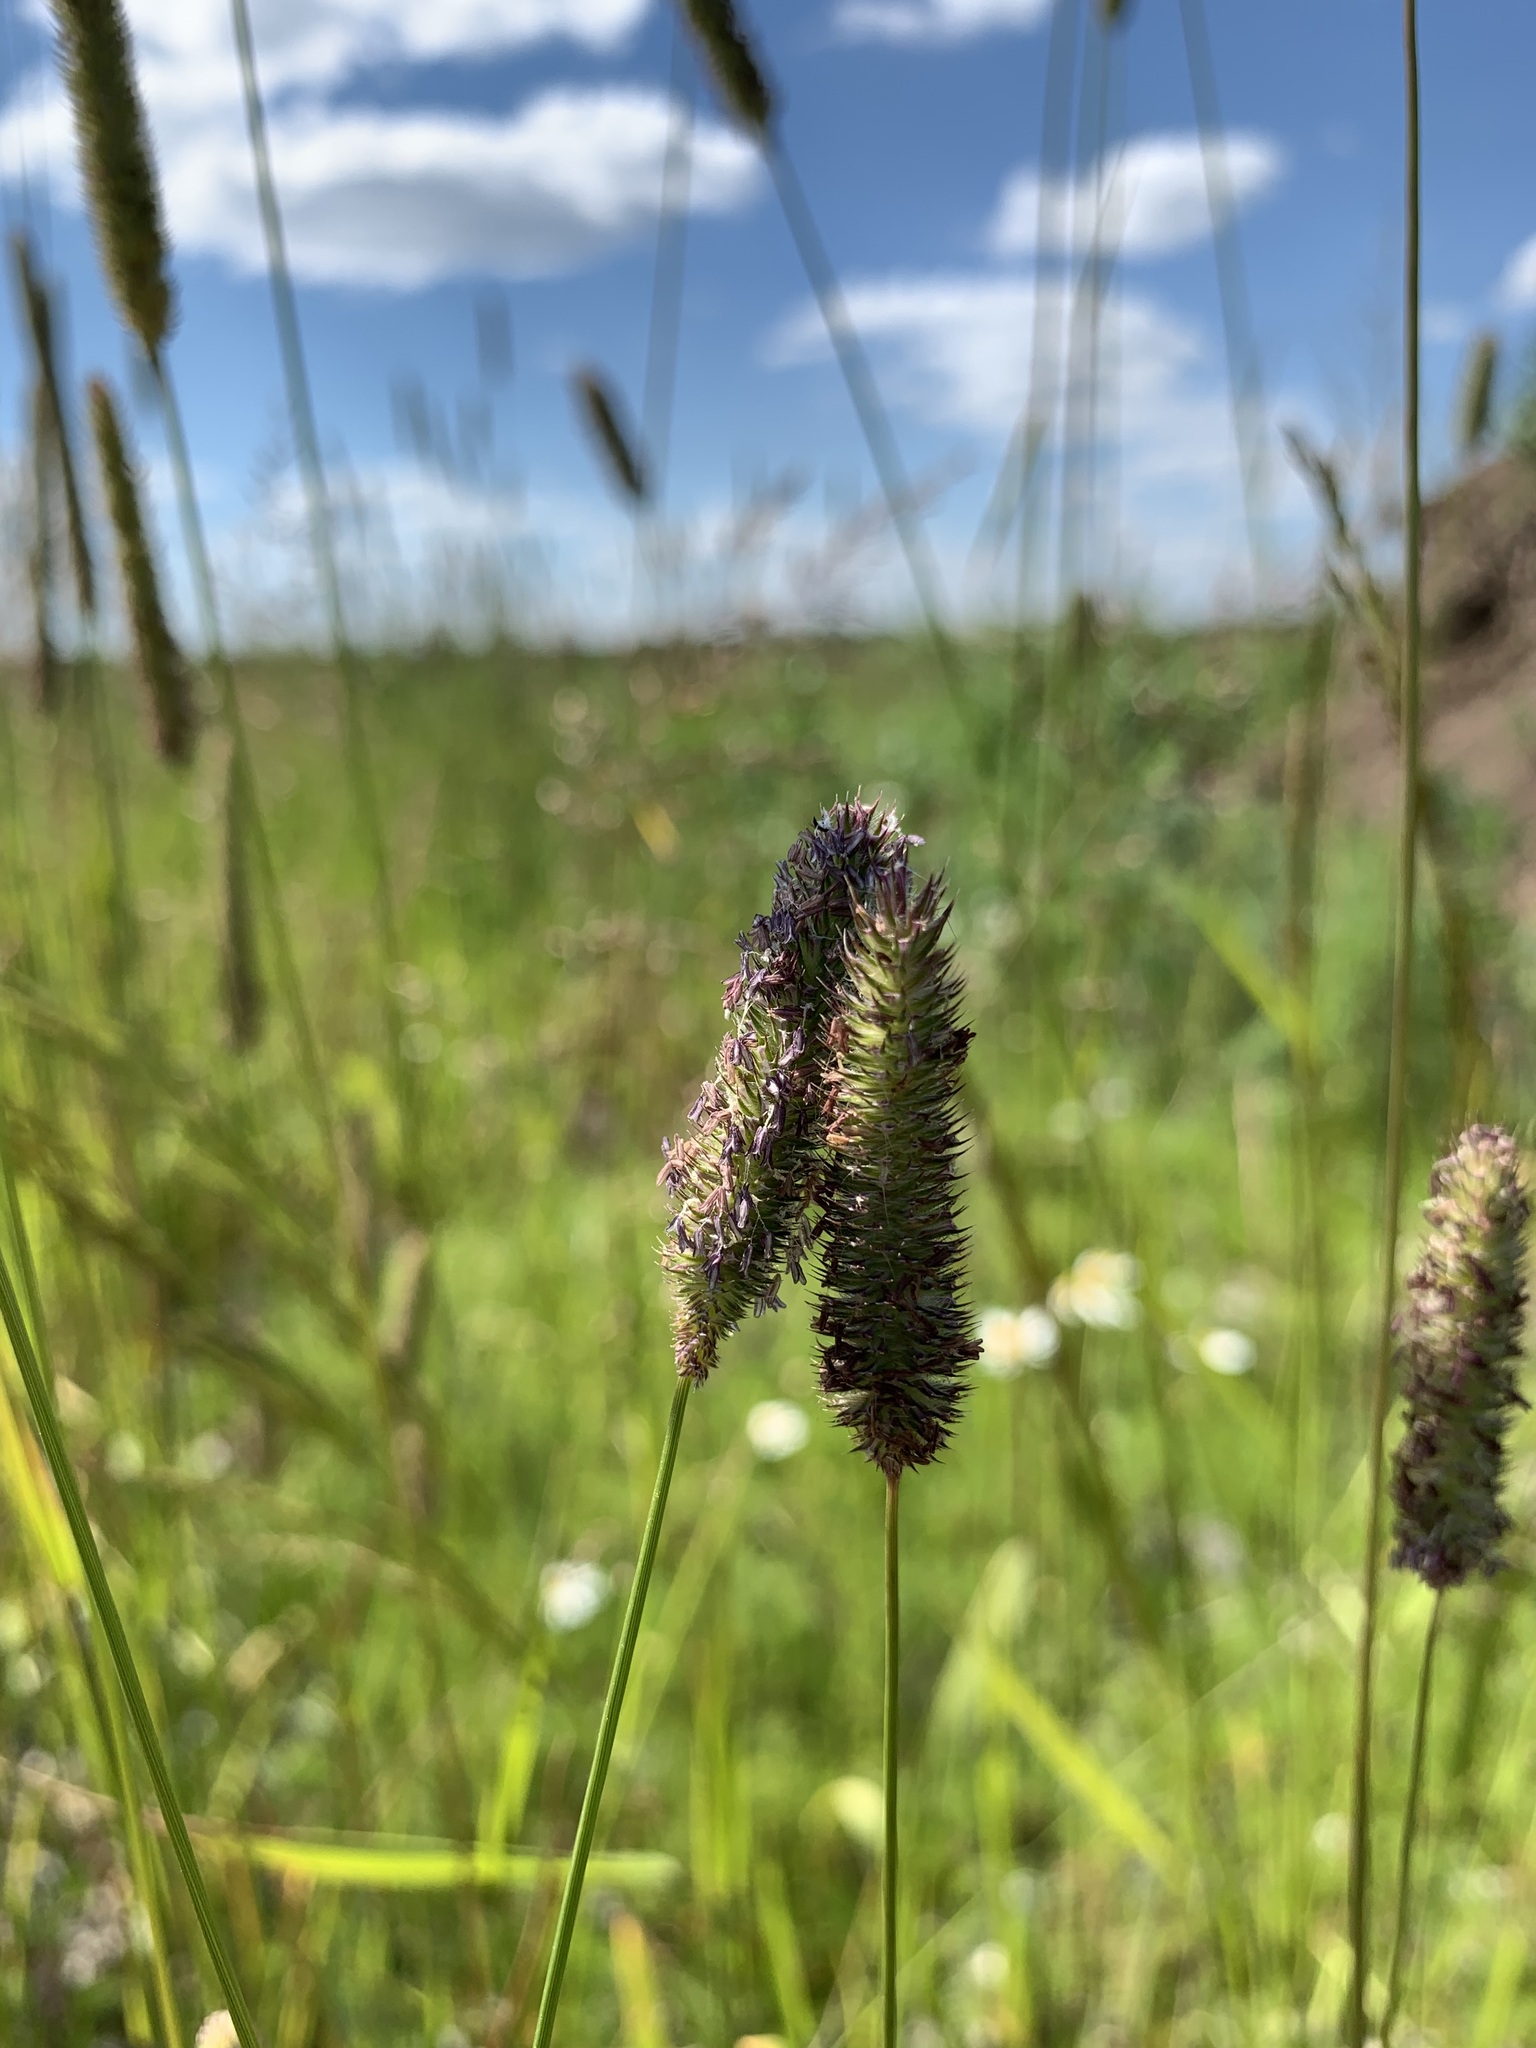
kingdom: Plantae
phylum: Tracheophyta
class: Liliopsida
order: Poales
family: Poaceae
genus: Phleum
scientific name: Phleum pratense
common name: Timothy grass
